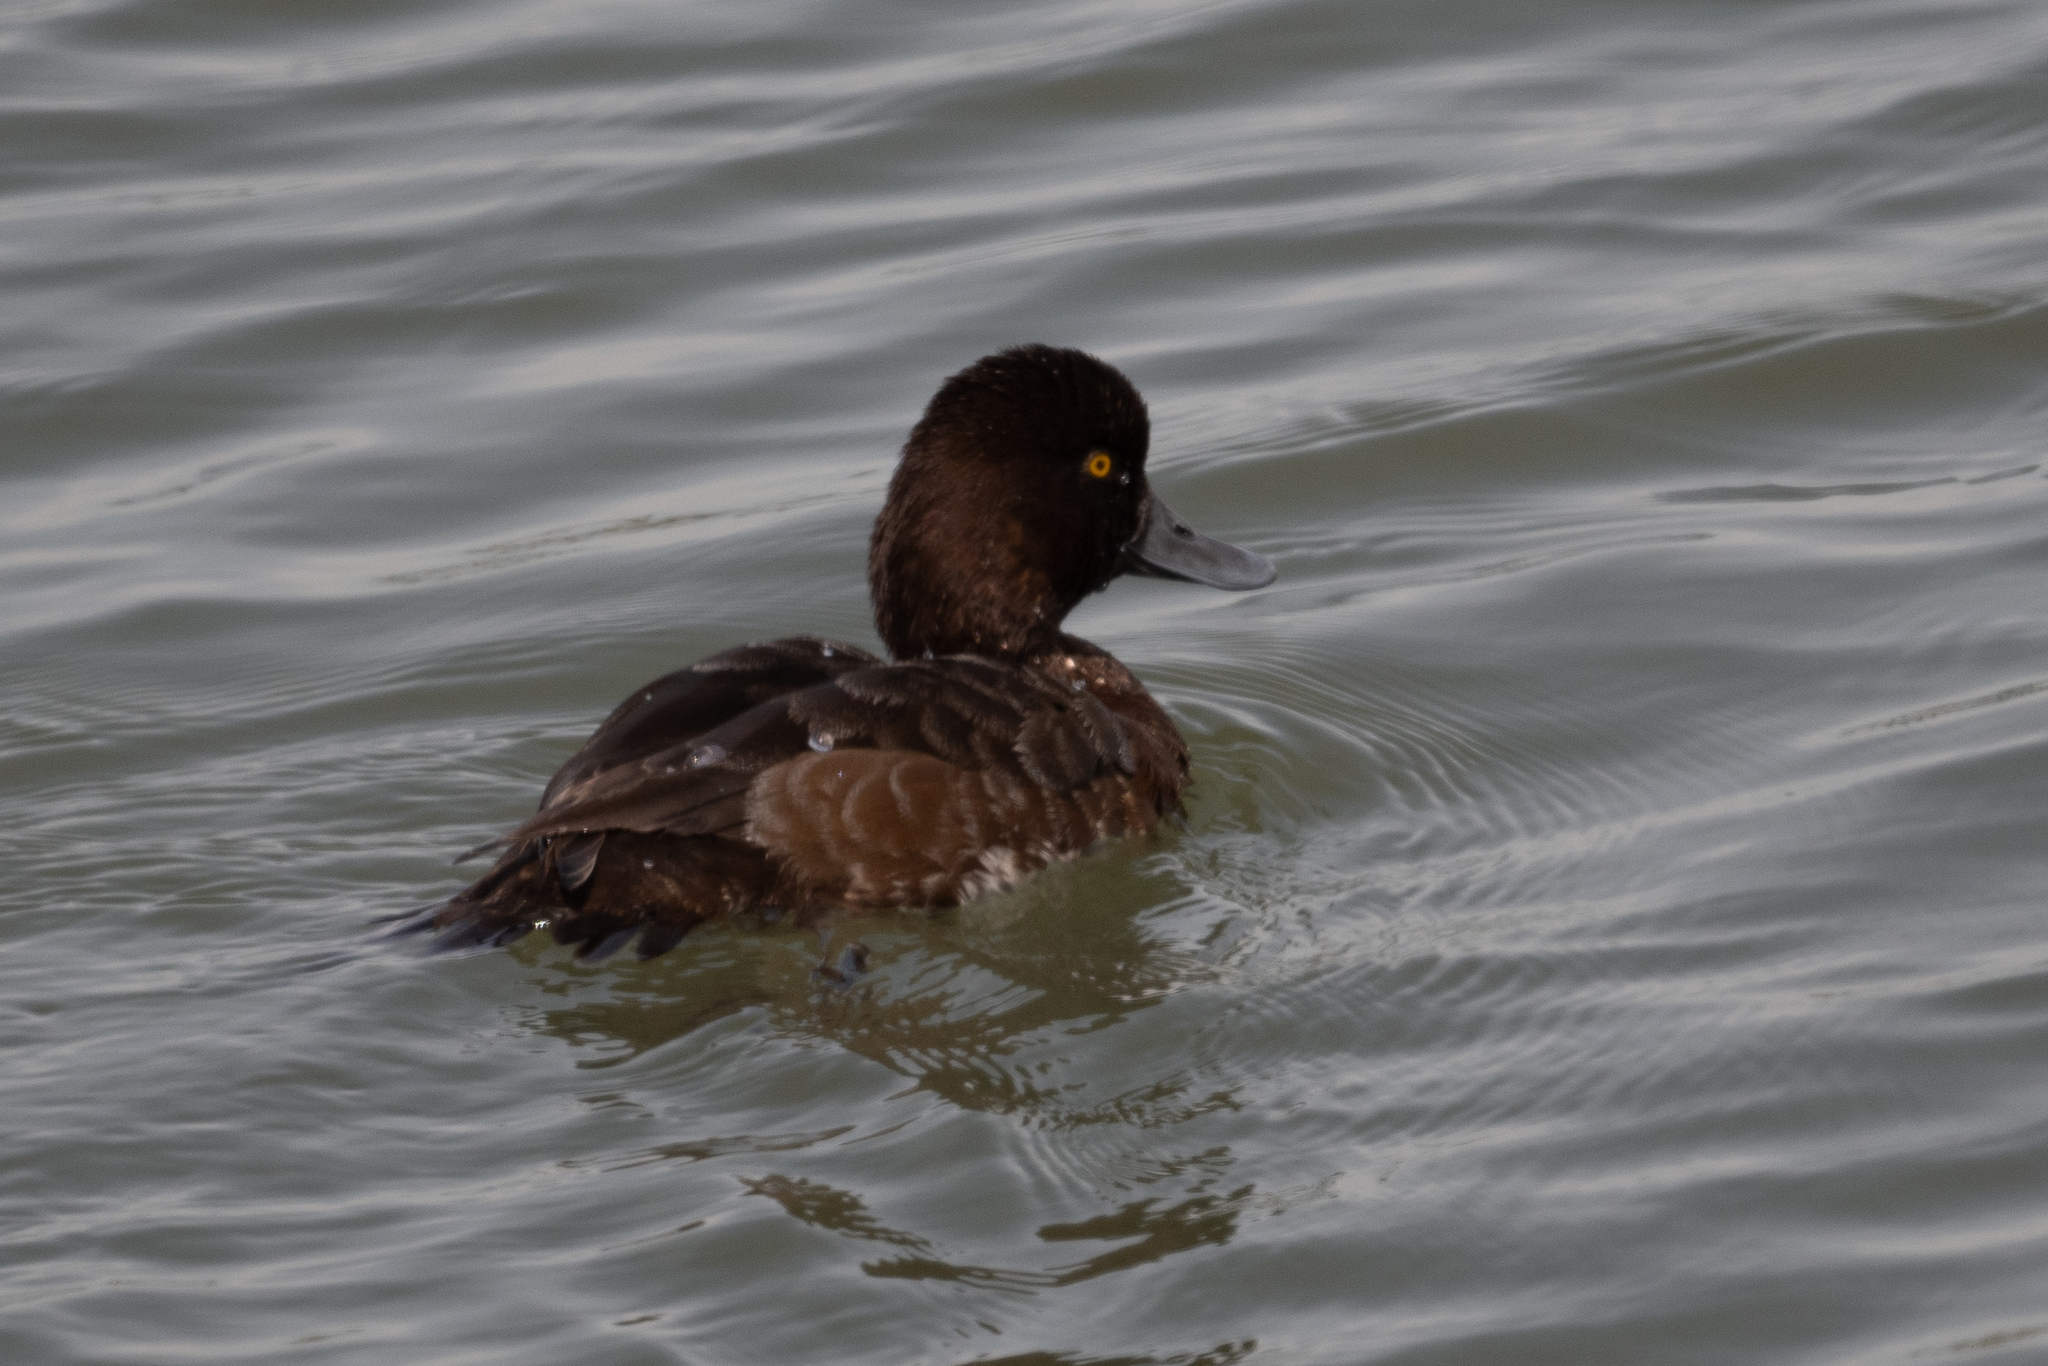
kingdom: Animalia
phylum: Chordata
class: Aves
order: Anseriformes
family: Anatidae
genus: Aythya
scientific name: Aythya marila
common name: Greater scaup
